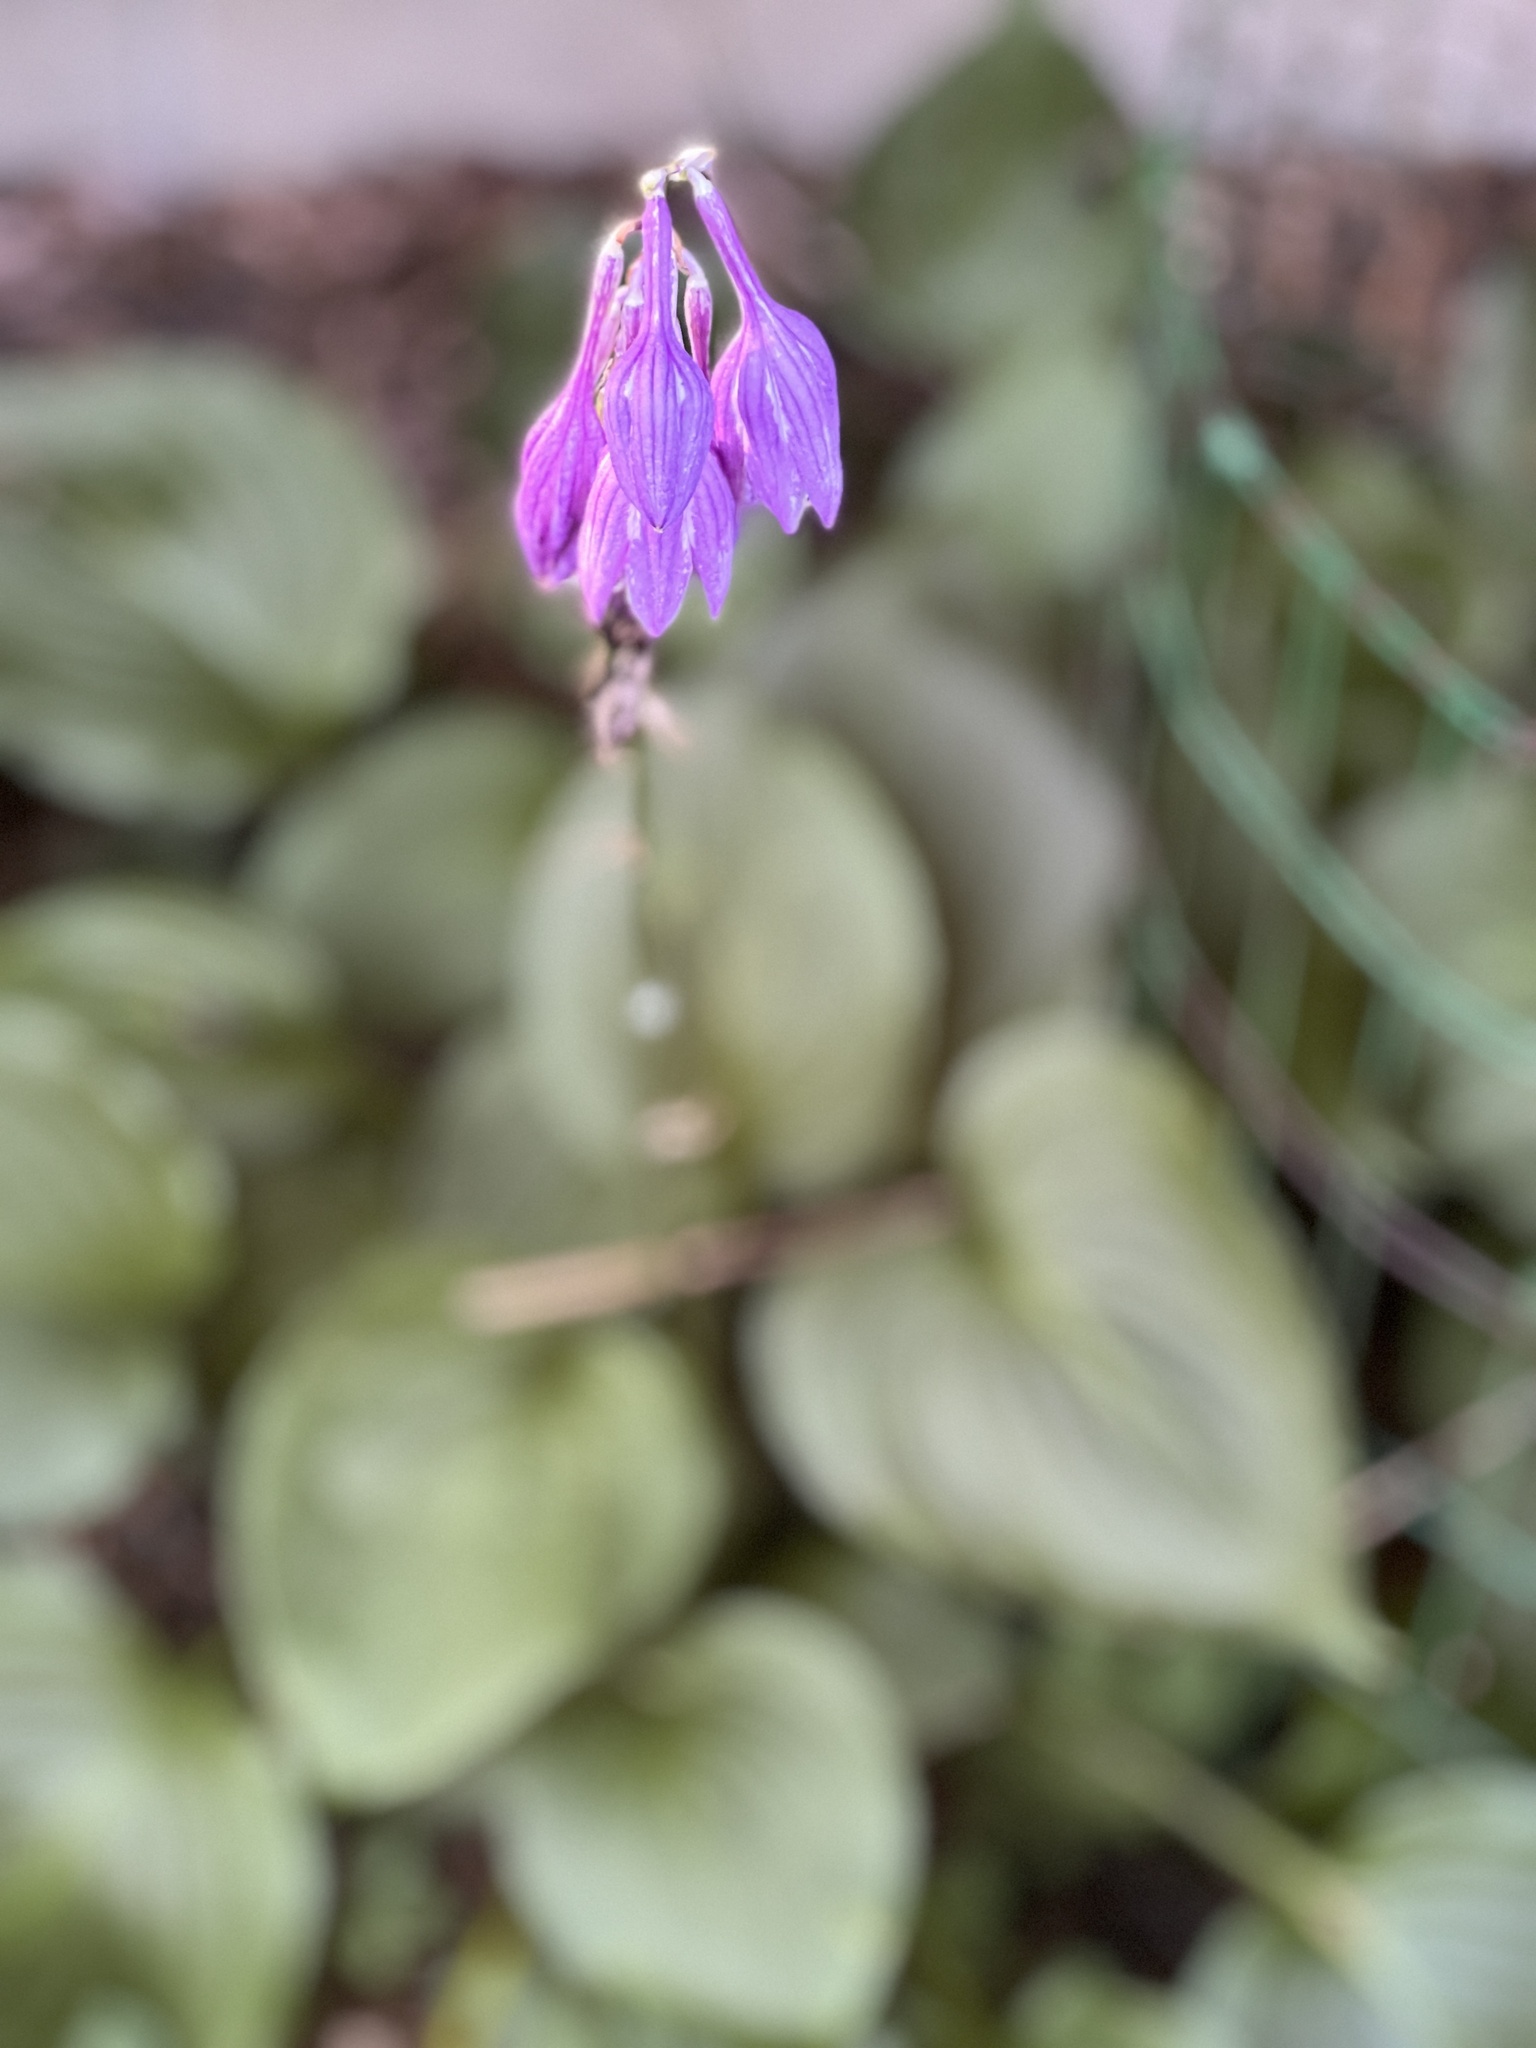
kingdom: Plantae
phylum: Tracheophyta
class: Liliopsida
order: Asparagales
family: Asparagaceae
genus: Hosta
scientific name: Hosta ventricosa
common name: Blue plantain-lily
